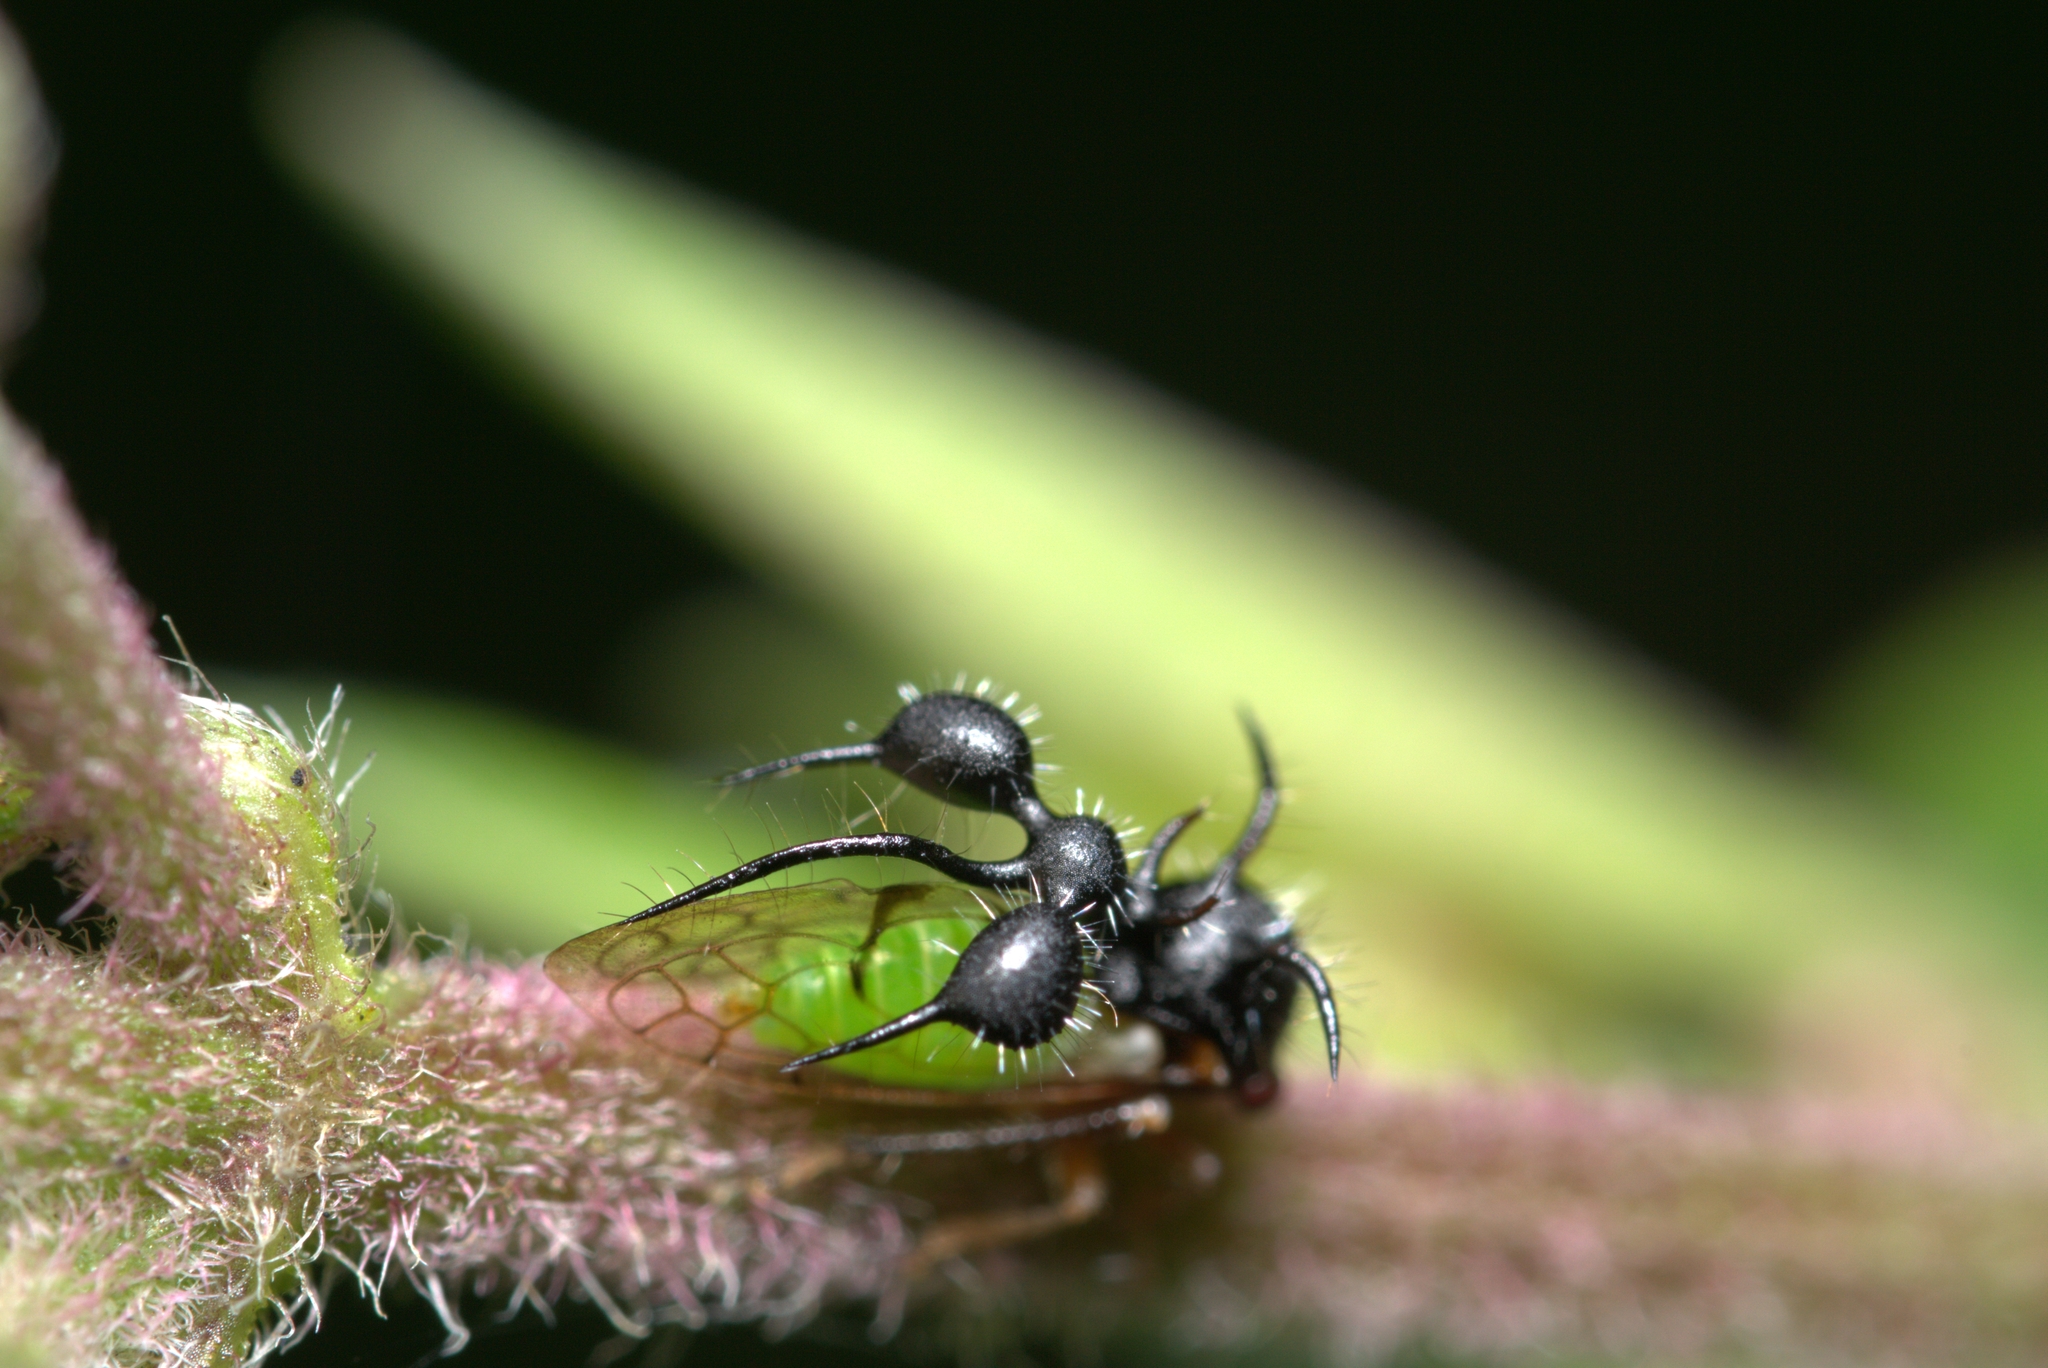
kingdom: Animalia
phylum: Arthropoda
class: Insecta
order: Hemiptera
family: Membracidae
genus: Cyphonia
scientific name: Cyphonia clavata
